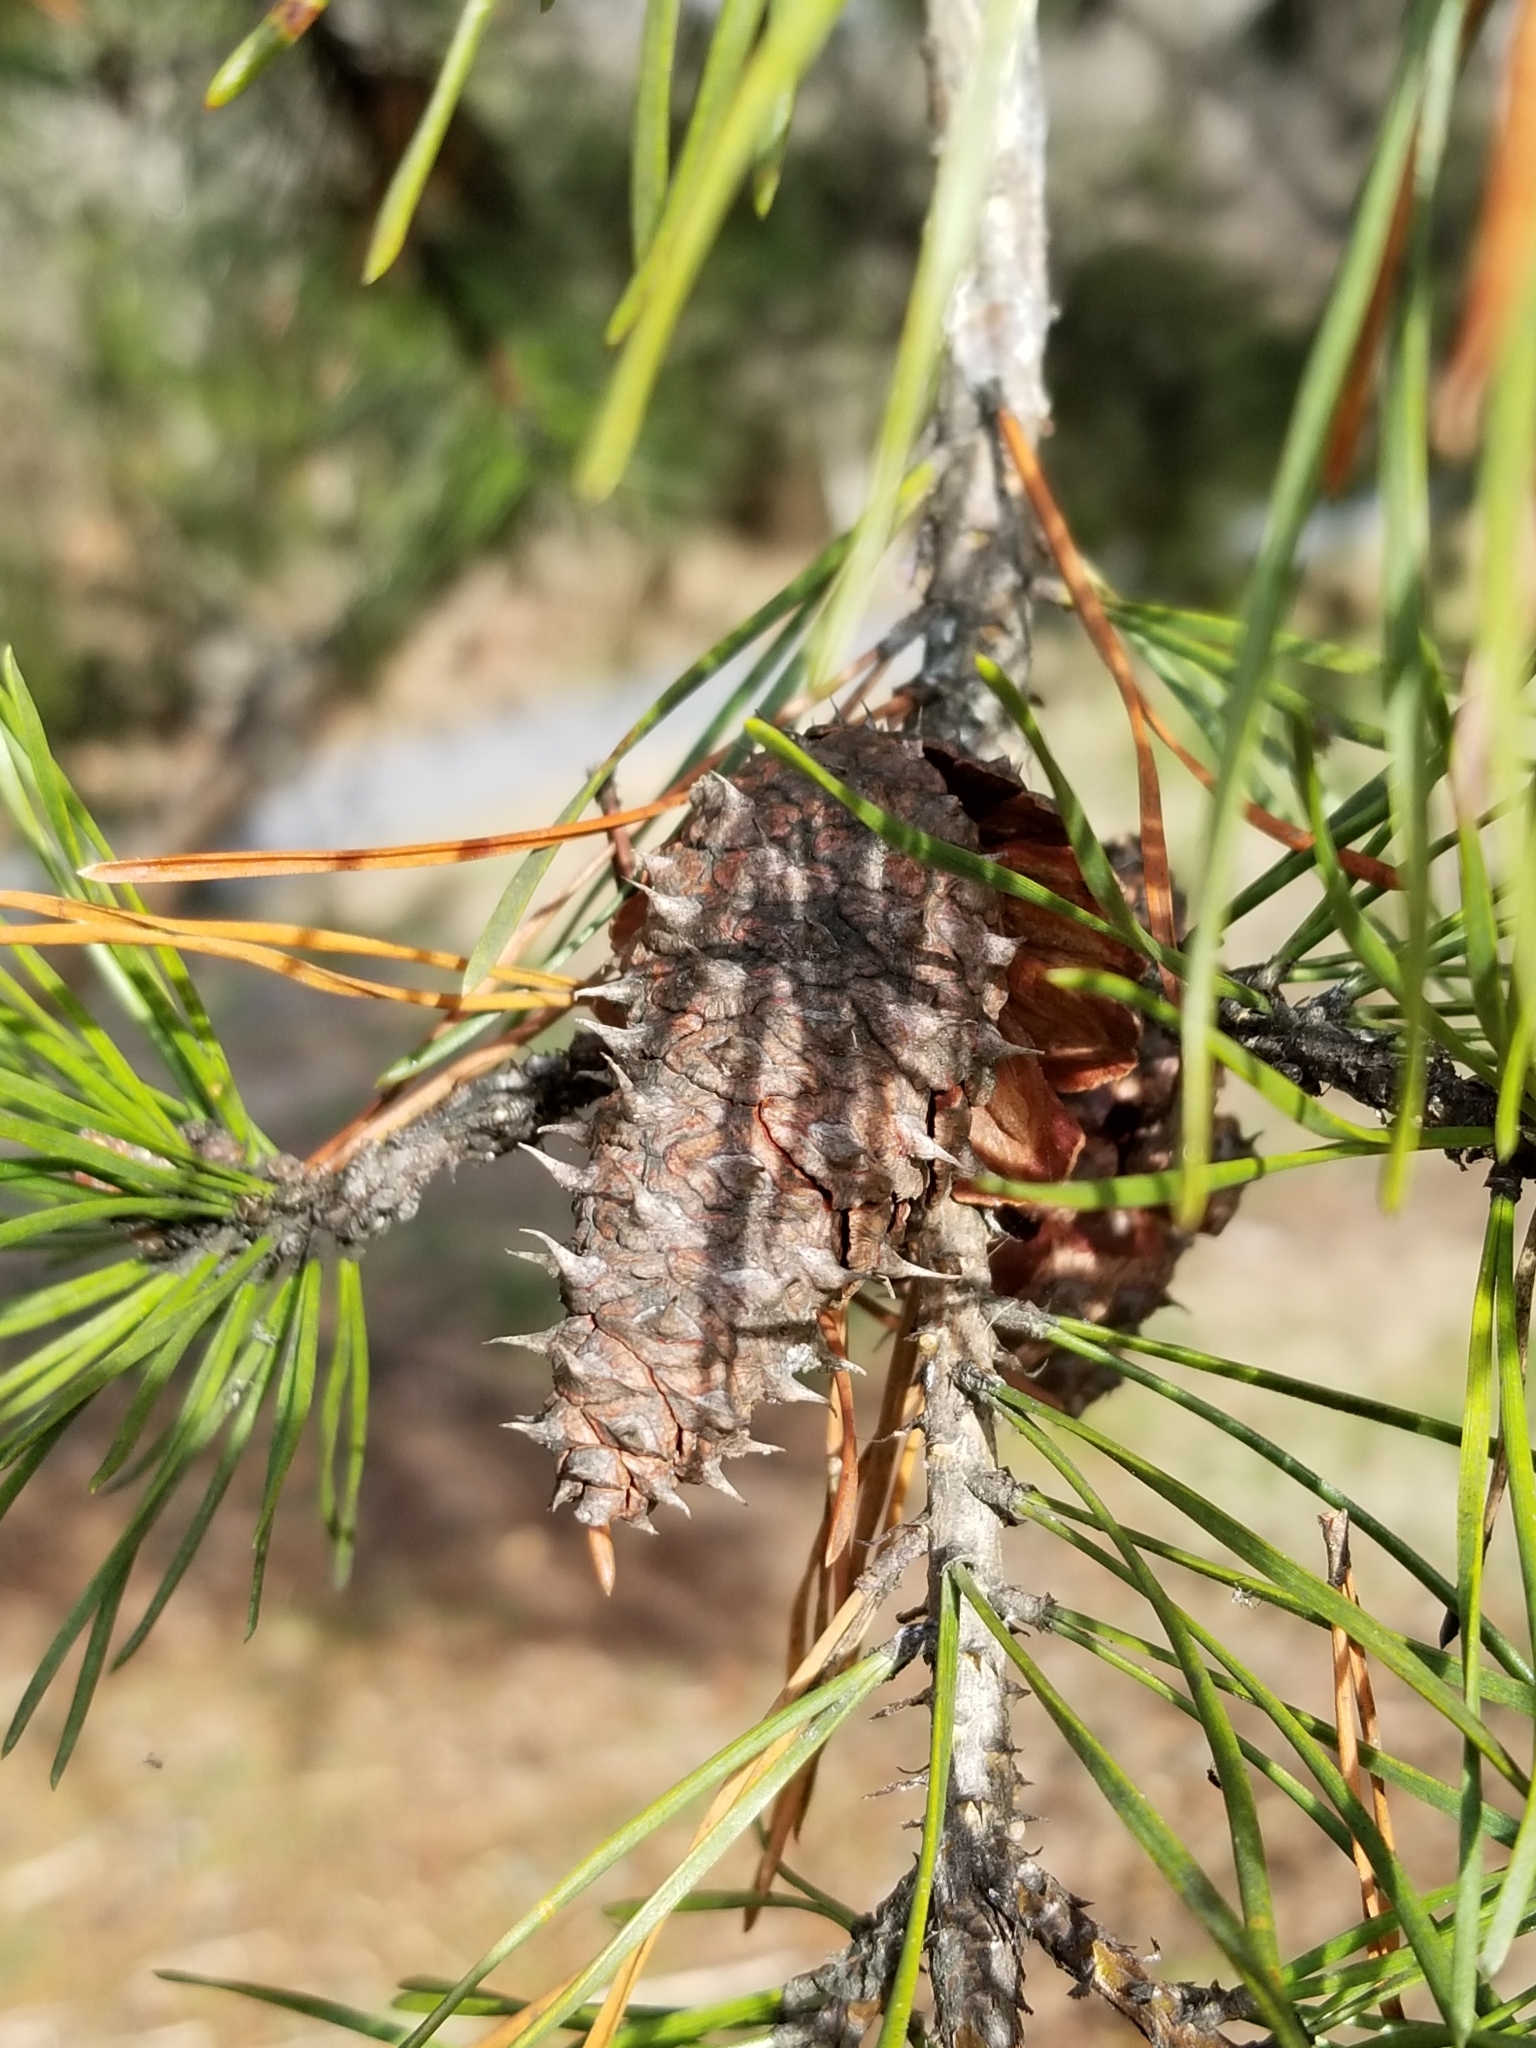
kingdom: Plantae
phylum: Tracheophyta
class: Pinopsida
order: Pinales
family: Pinaceae
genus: Pinus
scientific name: Pinus virginiana
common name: Scrub pine
